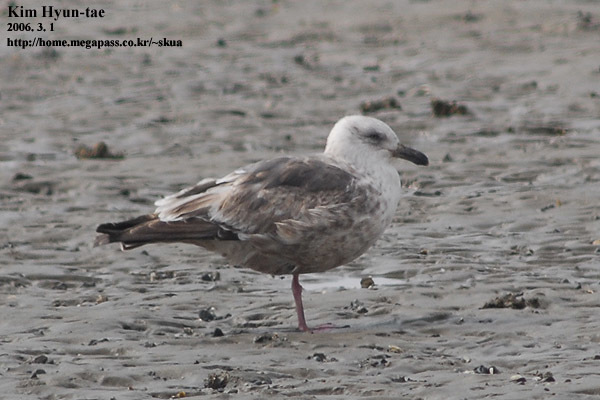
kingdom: Animalia
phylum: Chordata
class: Aves
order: Charadriiformes
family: Laridae
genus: Larus
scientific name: Larus schistisagus
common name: Slaty-backed gull
